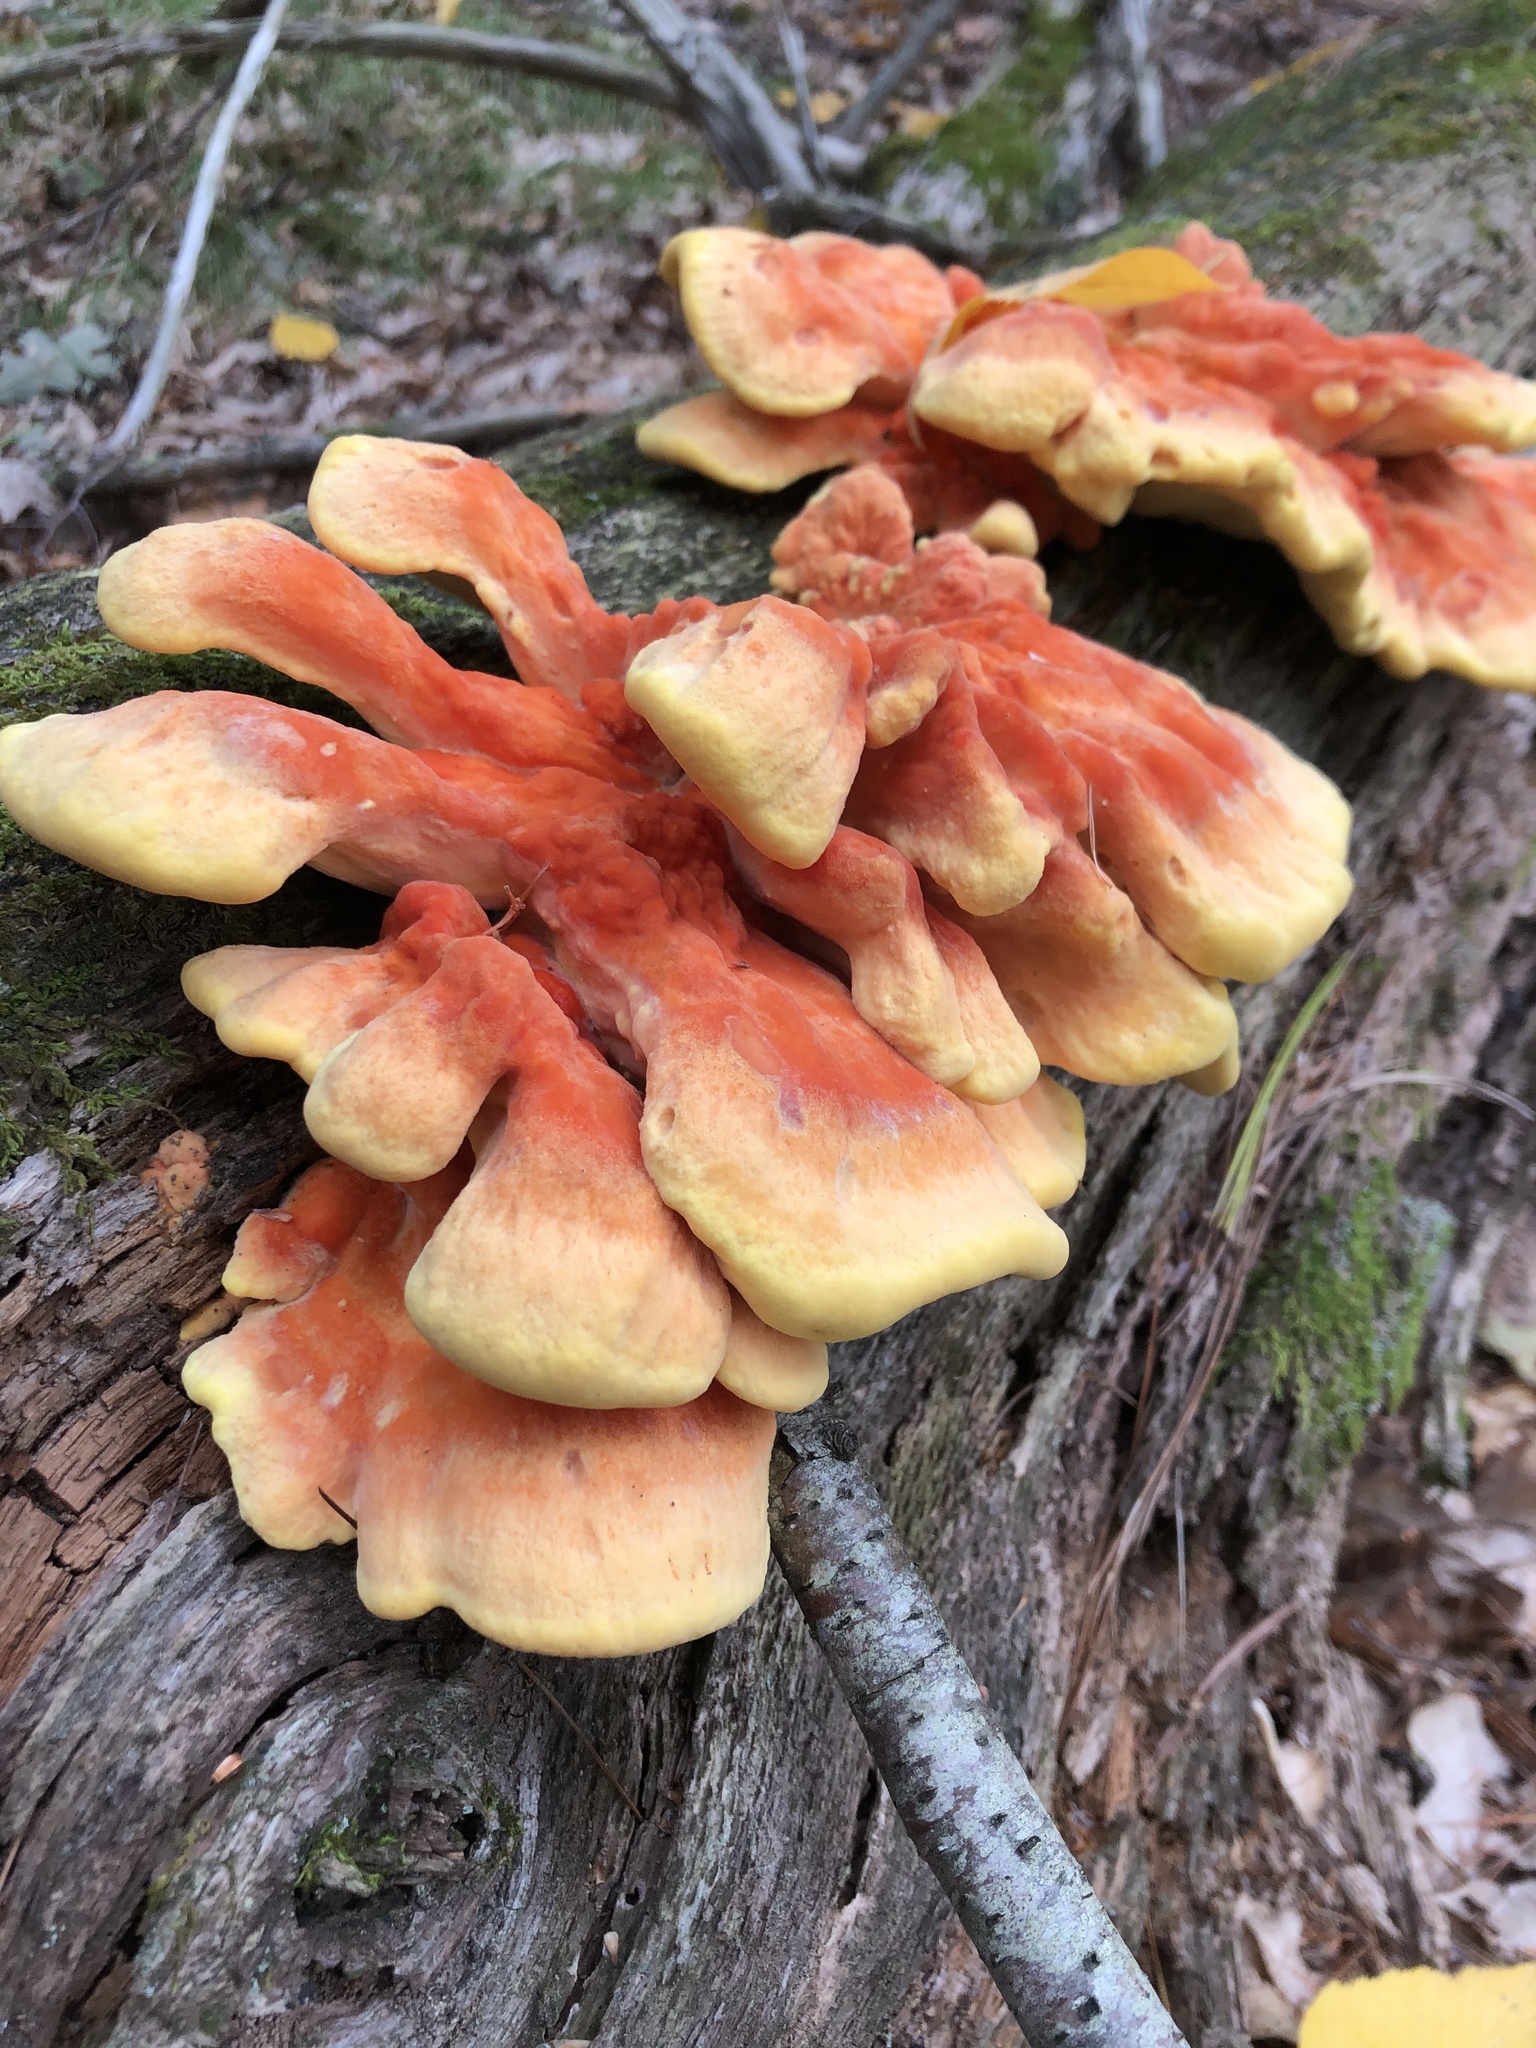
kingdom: Fungi
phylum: Basidiomycota
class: Agaricomycetes
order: Polyporales
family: Laetiporaceae
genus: Laetiporus
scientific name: Laetiporus sulphureus
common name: Chicken of the woods
